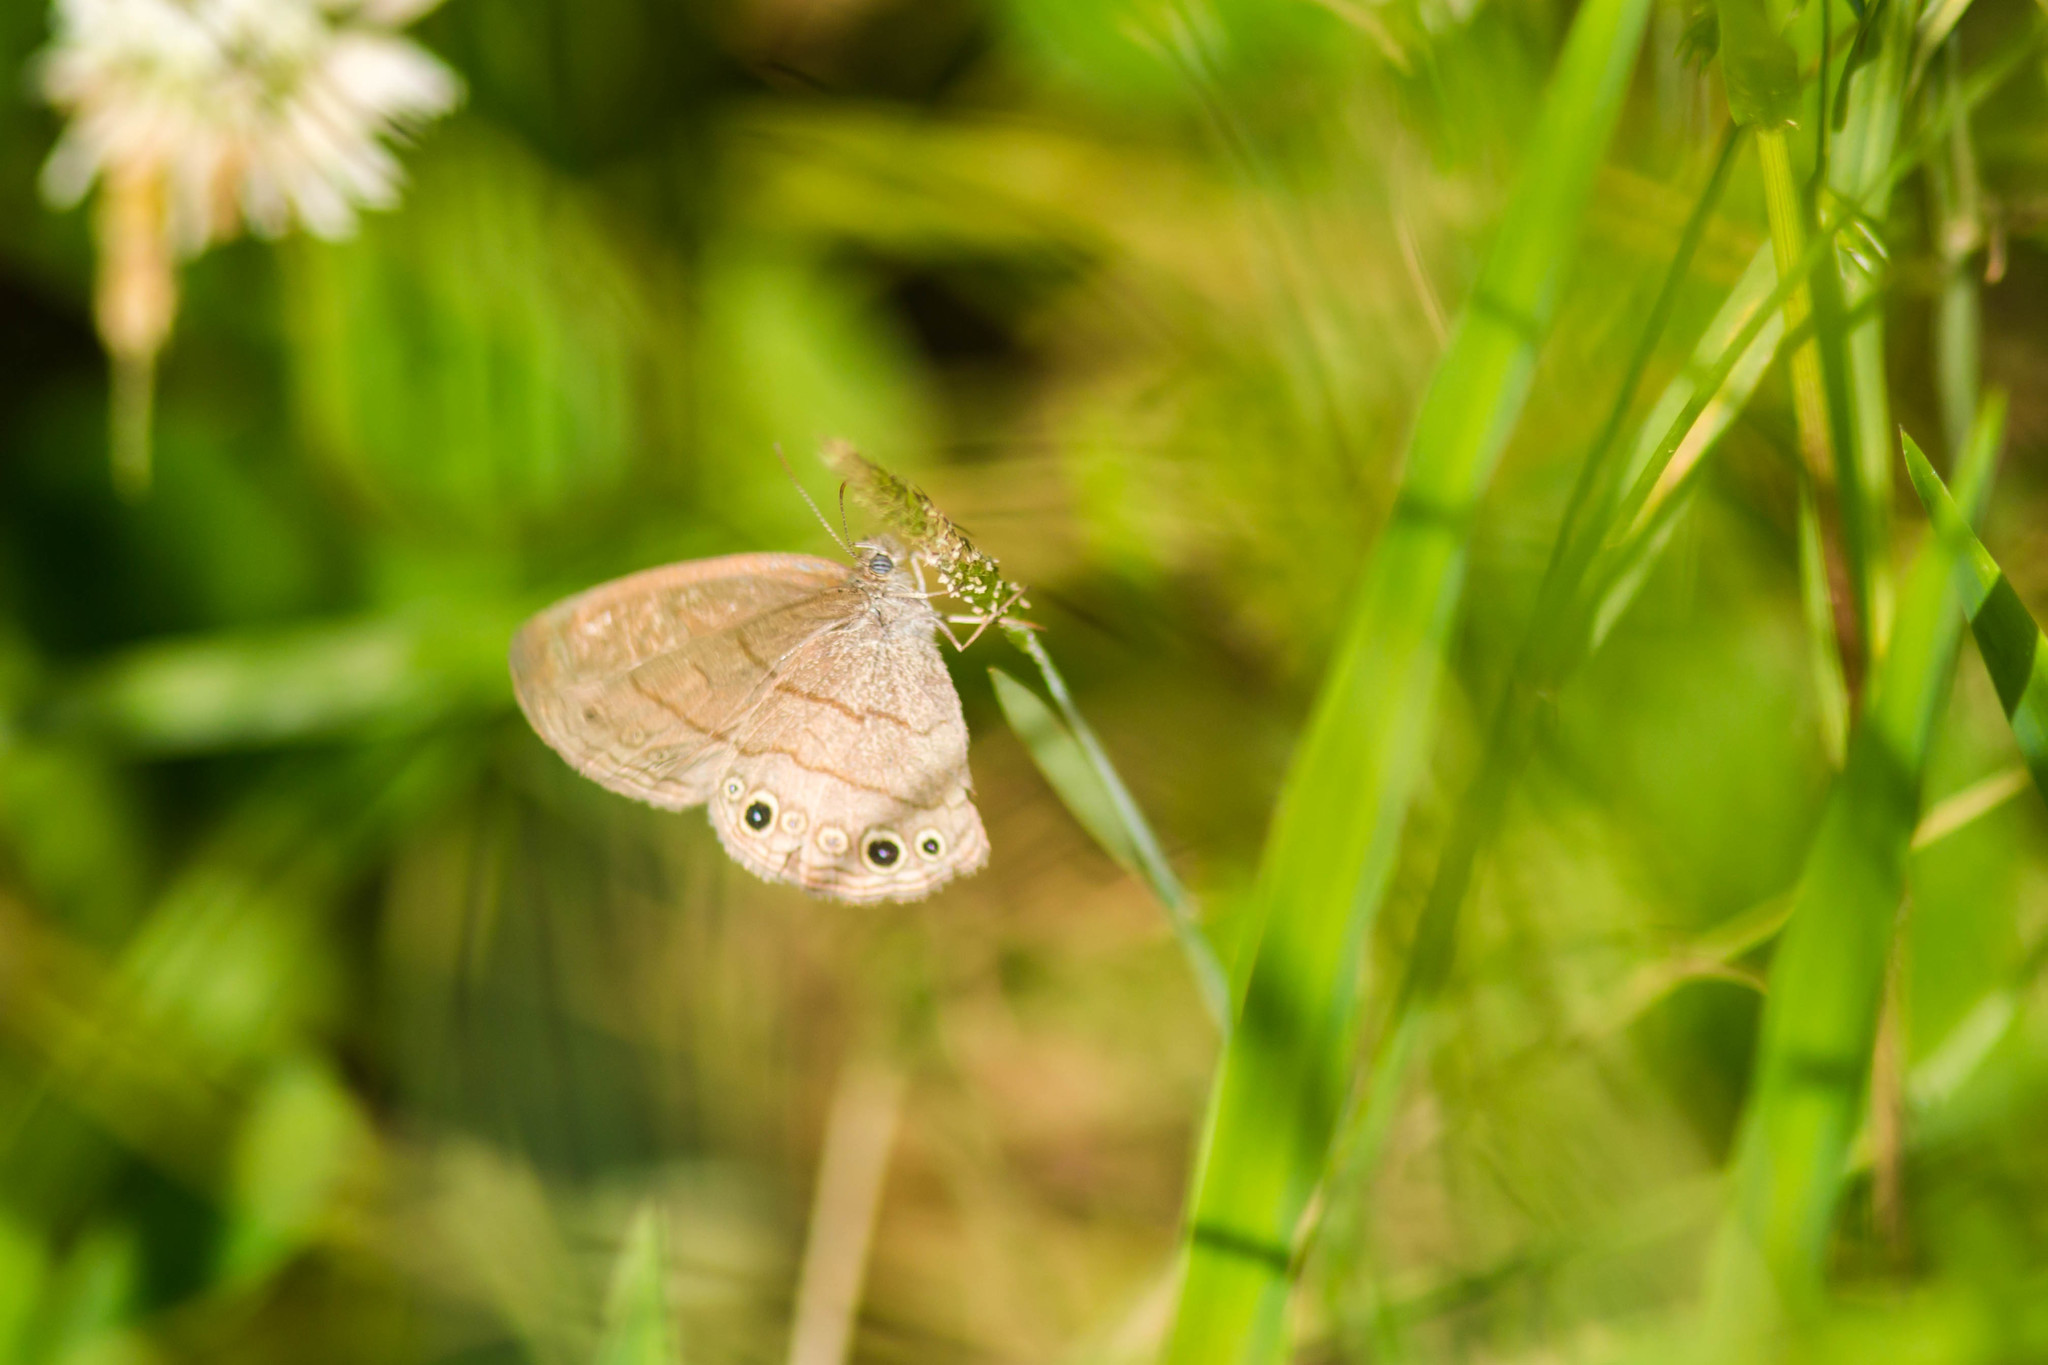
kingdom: Animalia
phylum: Arthropoda
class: Insecta
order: Lepidoptera
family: Nymphalidae
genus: Hermeuptychia
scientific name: Hermeuptychia hermes
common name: Hermes satyr
